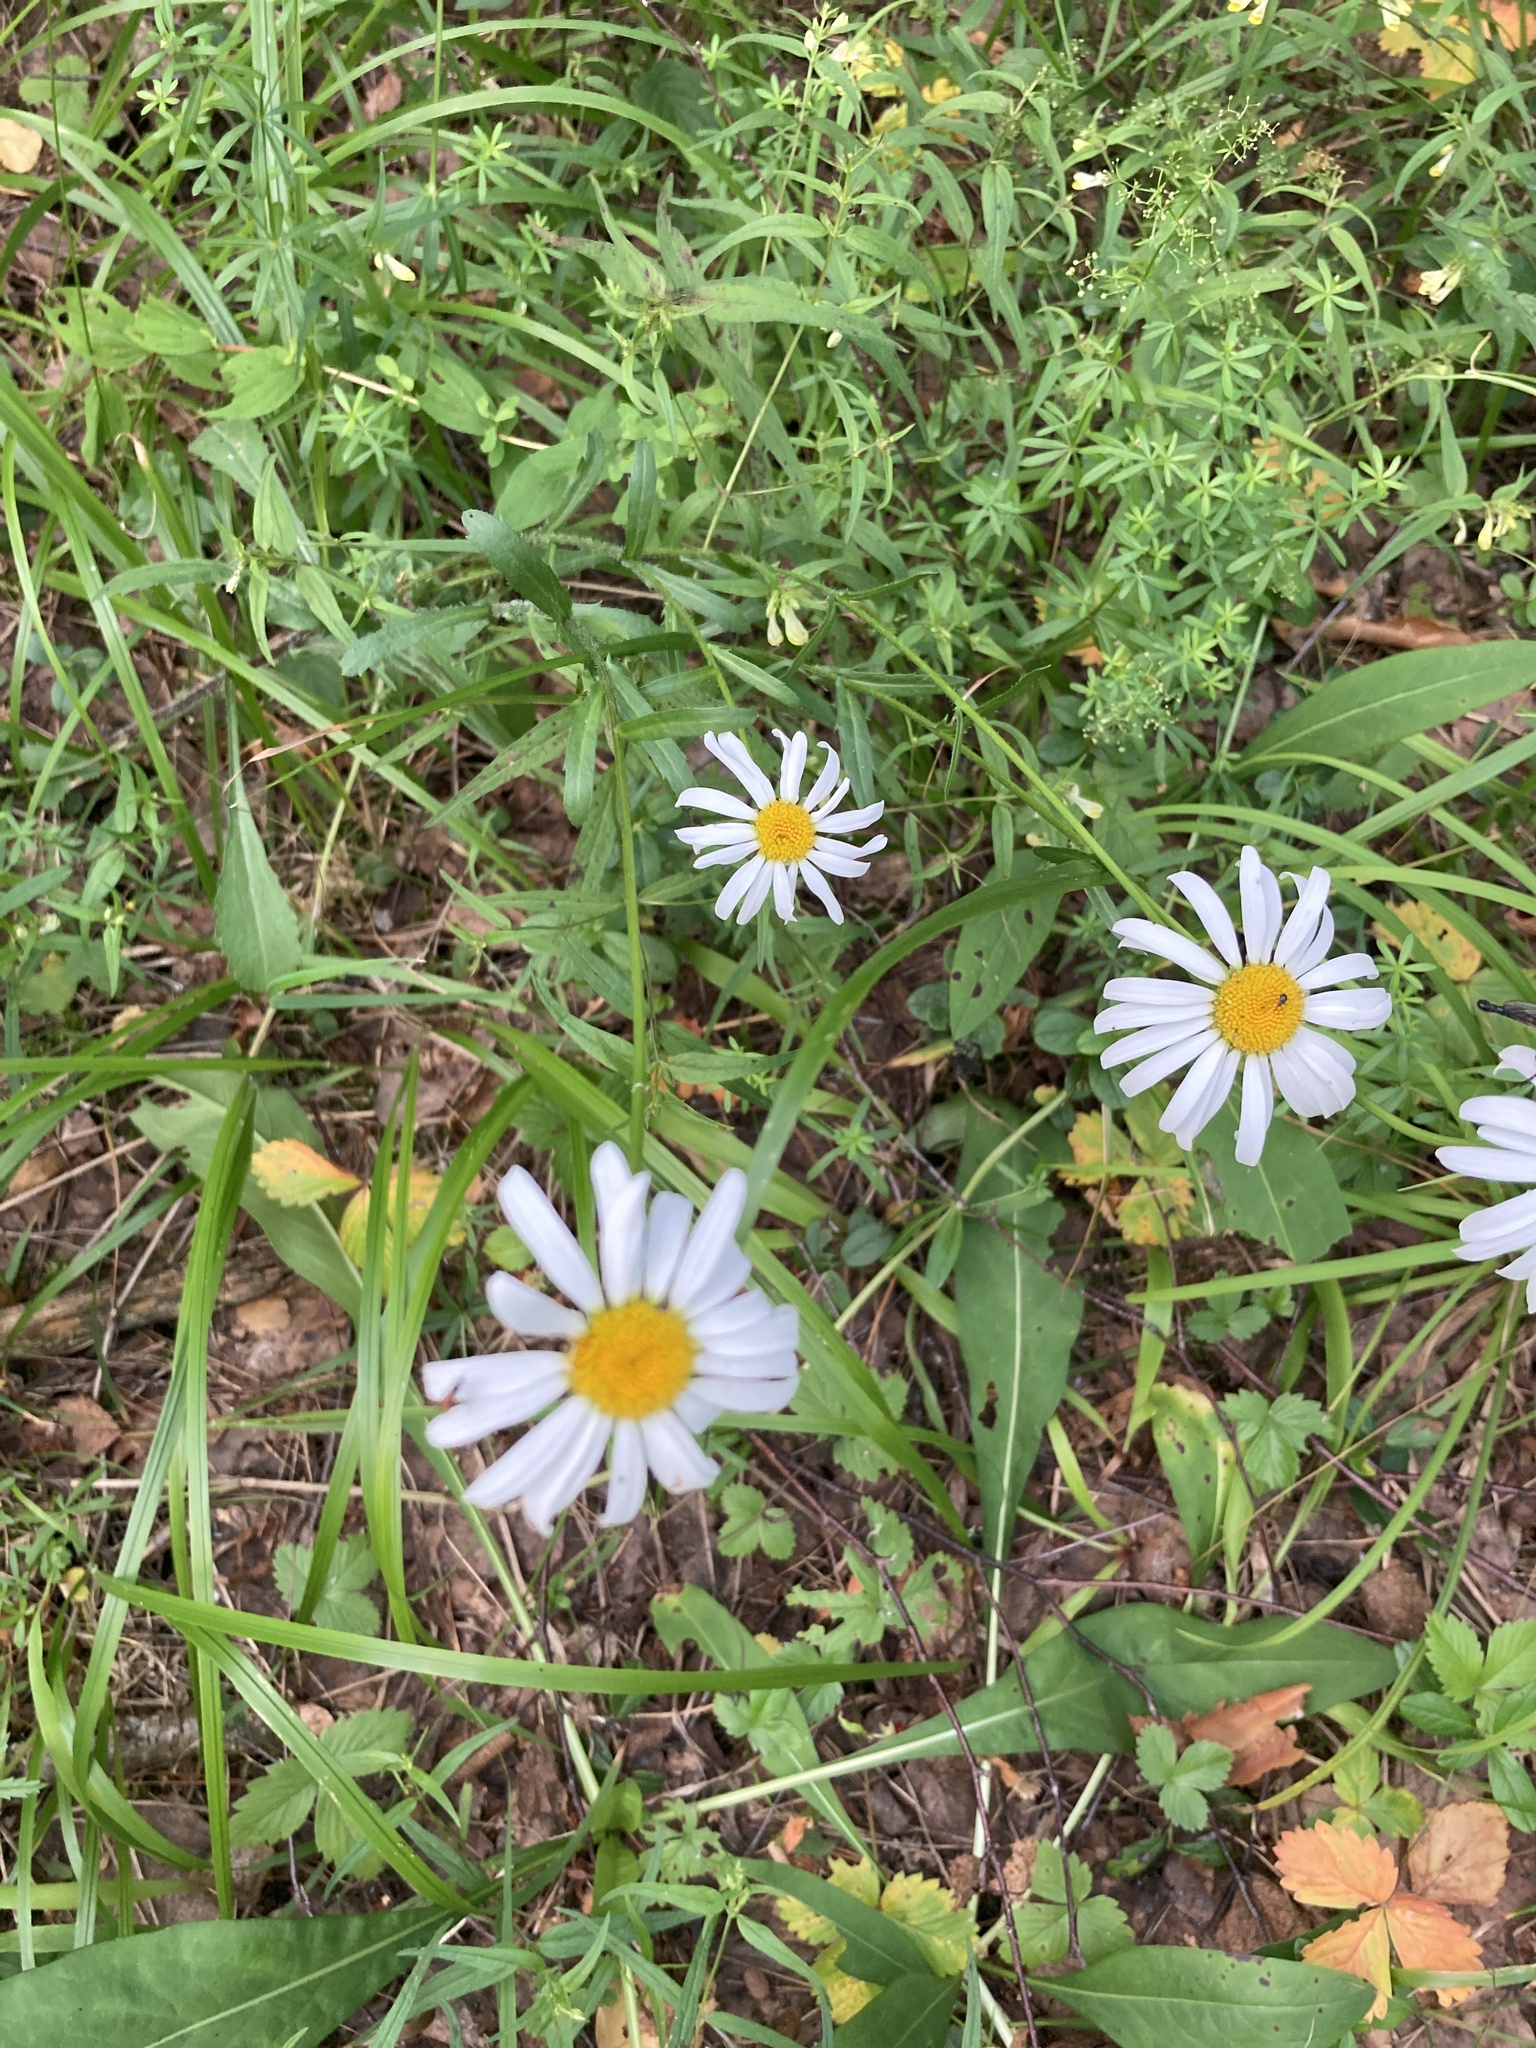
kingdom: Plantae
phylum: Tracheophyta
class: Magnoliopsida
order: Asterales
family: Asteraceae
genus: Leucanthemum
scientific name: Leucanthemum vulgare
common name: Oxeye daisy
